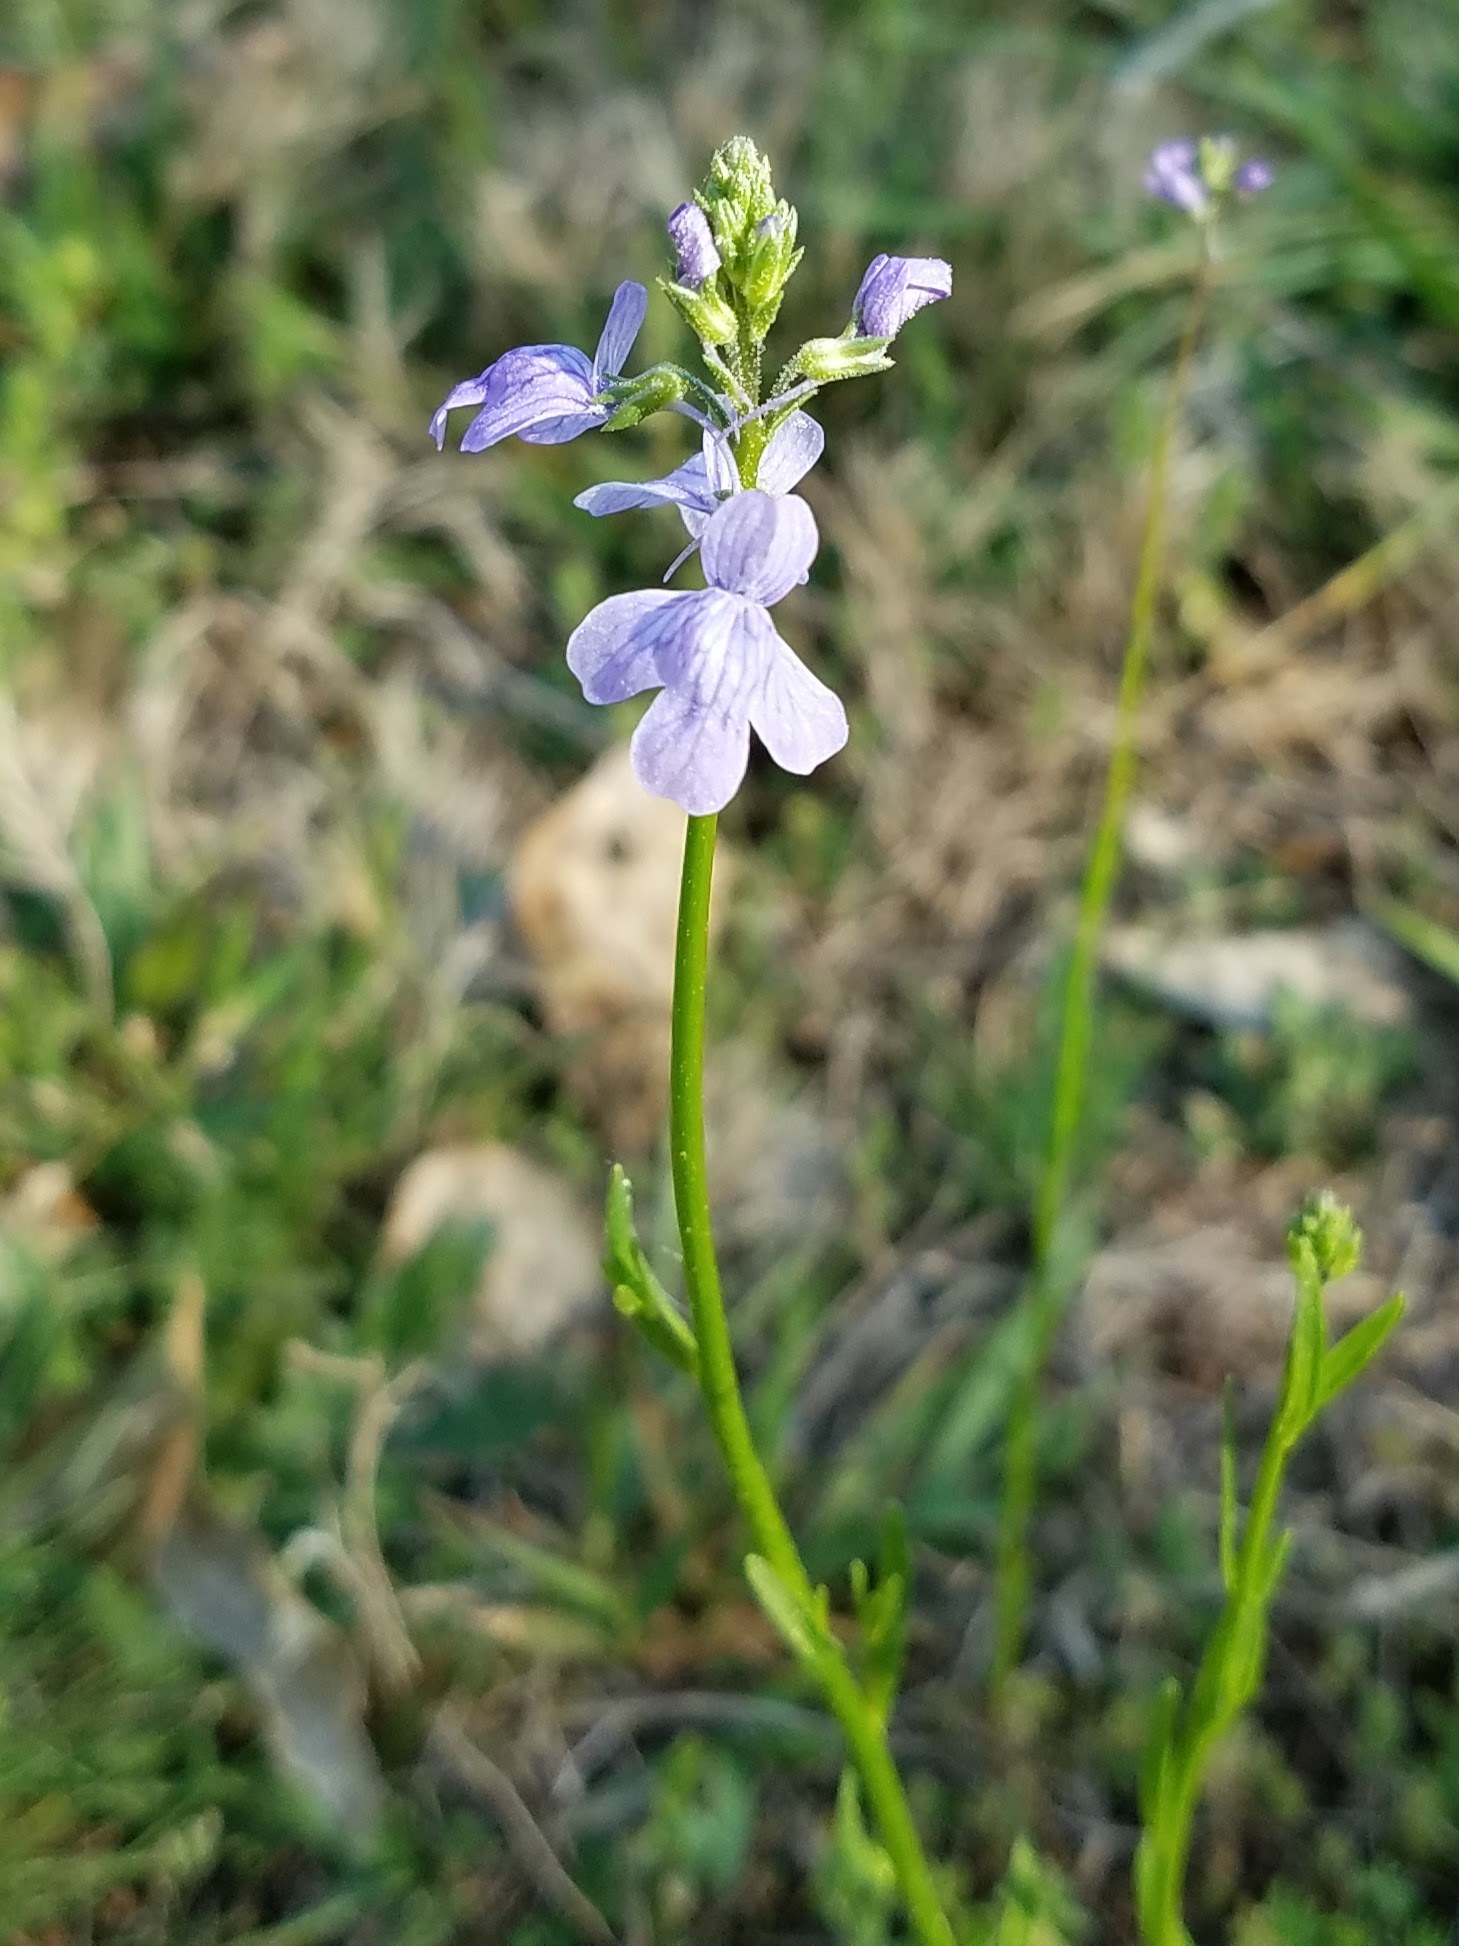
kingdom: Plantae
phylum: Tracheophyta
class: Magnoliopsida
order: Lamiales
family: Plantaginaceae
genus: Nuttallanthus
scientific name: Nuttallanthus texanus
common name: Texas toadflax
